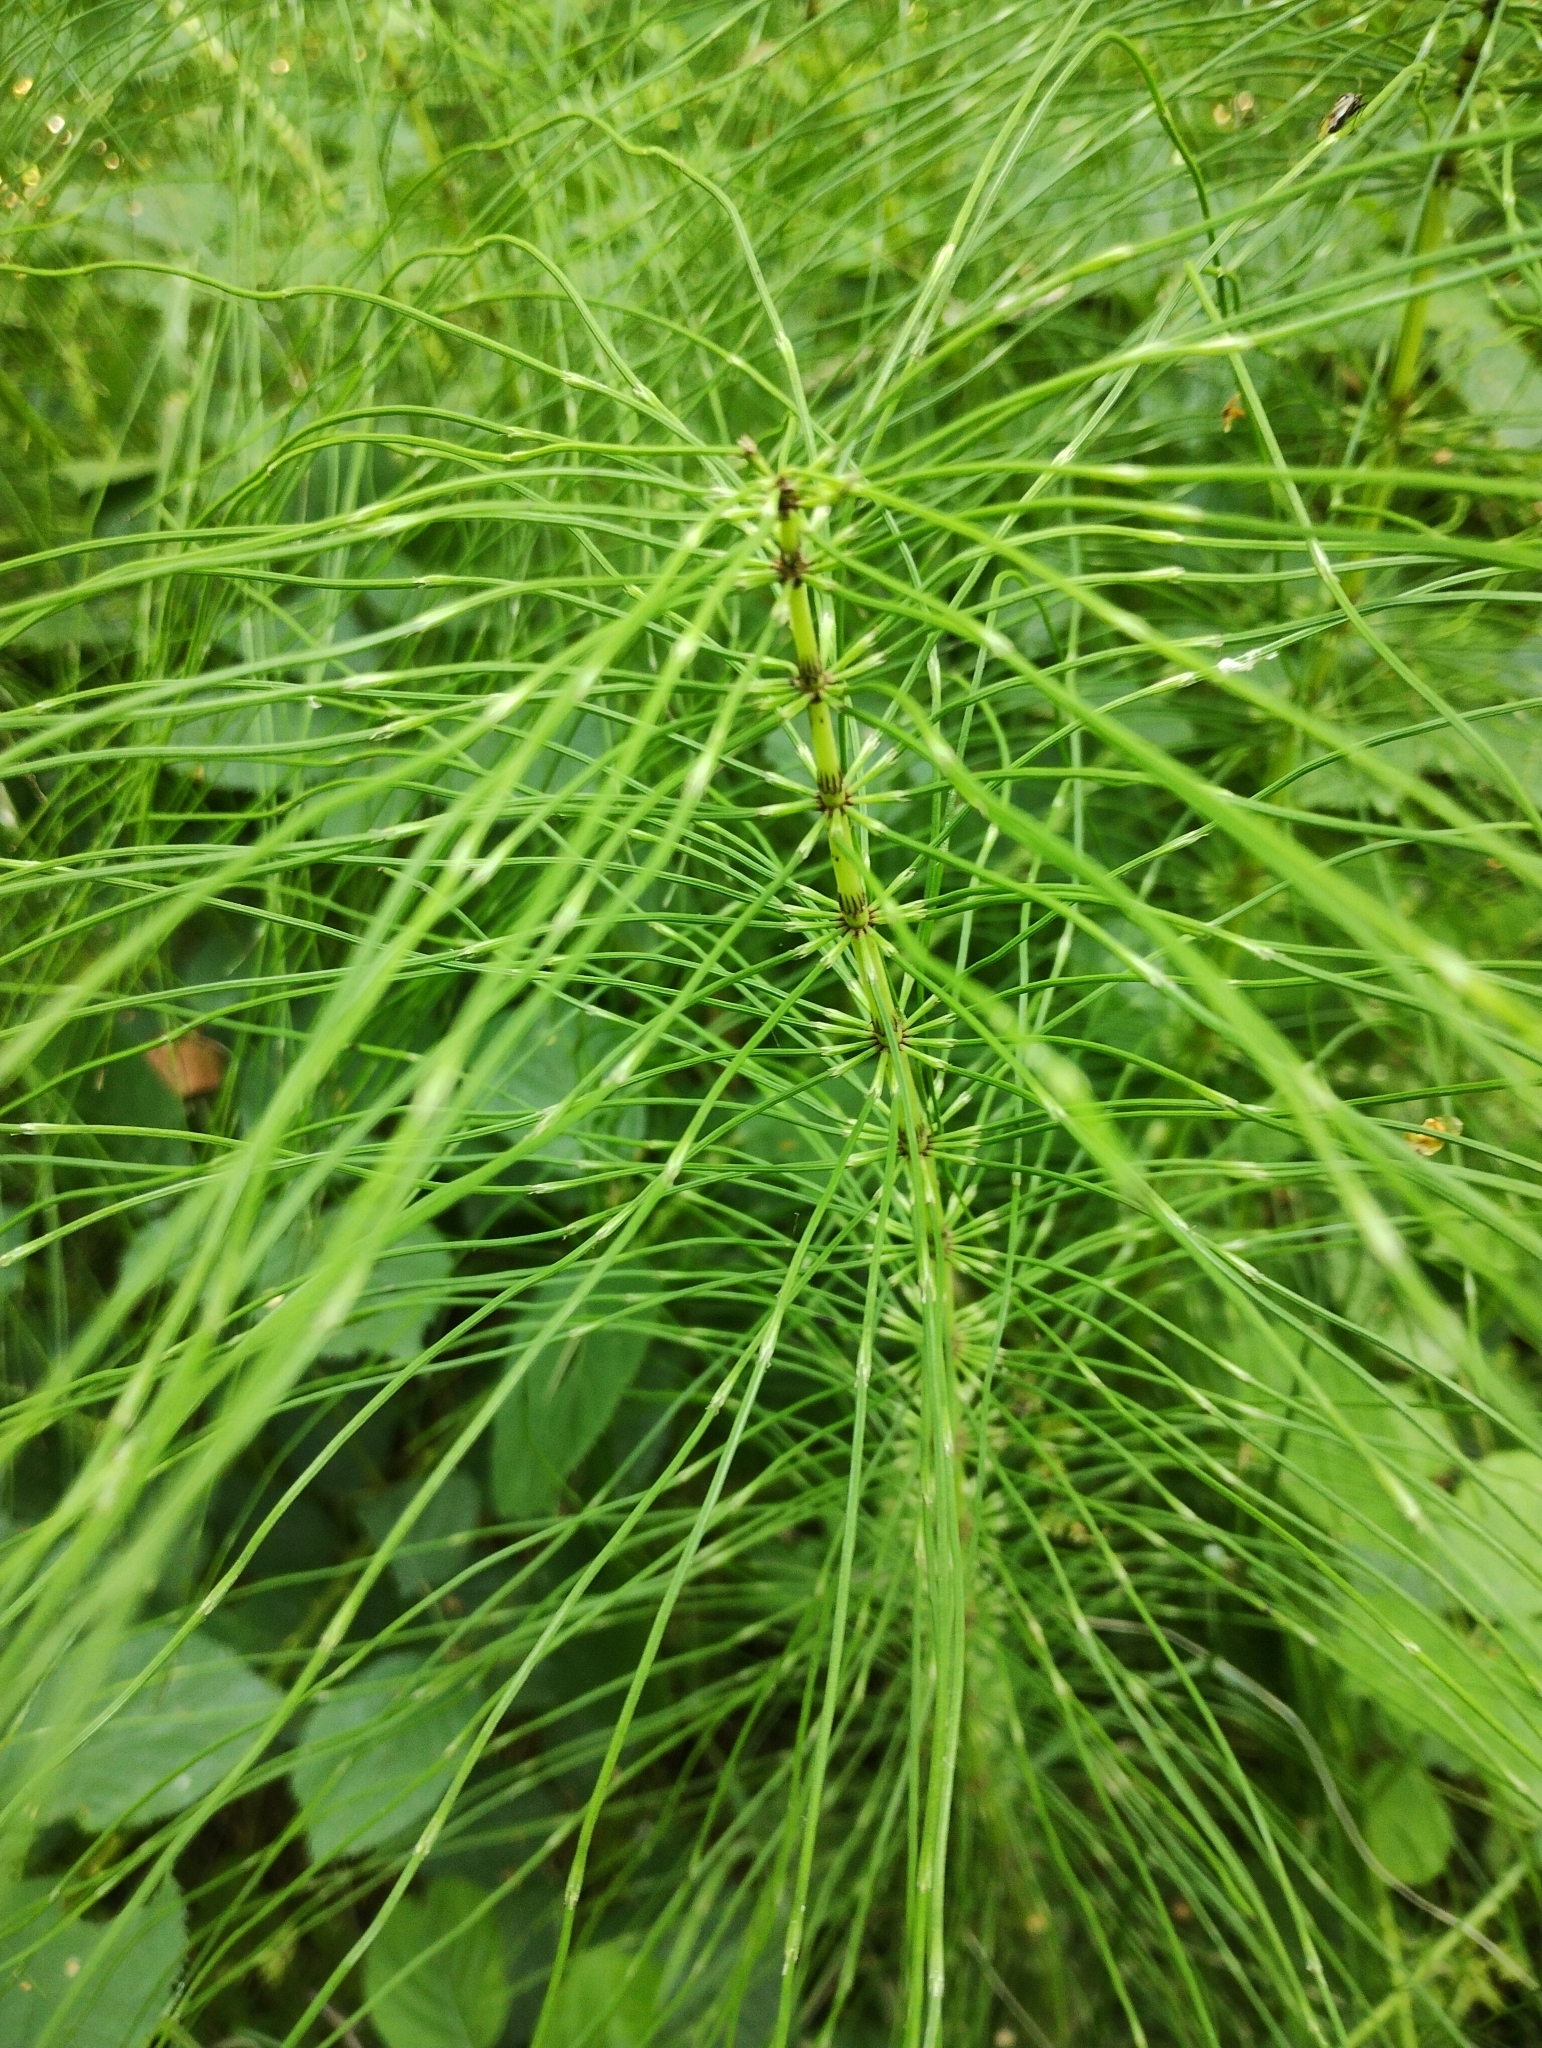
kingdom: Plantae
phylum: Tracheophyta
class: Polypodiopsida
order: Equisetales
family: Equisetaceae
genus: Equisetum
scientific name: Equisetum telmateia
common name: Great horsetail
